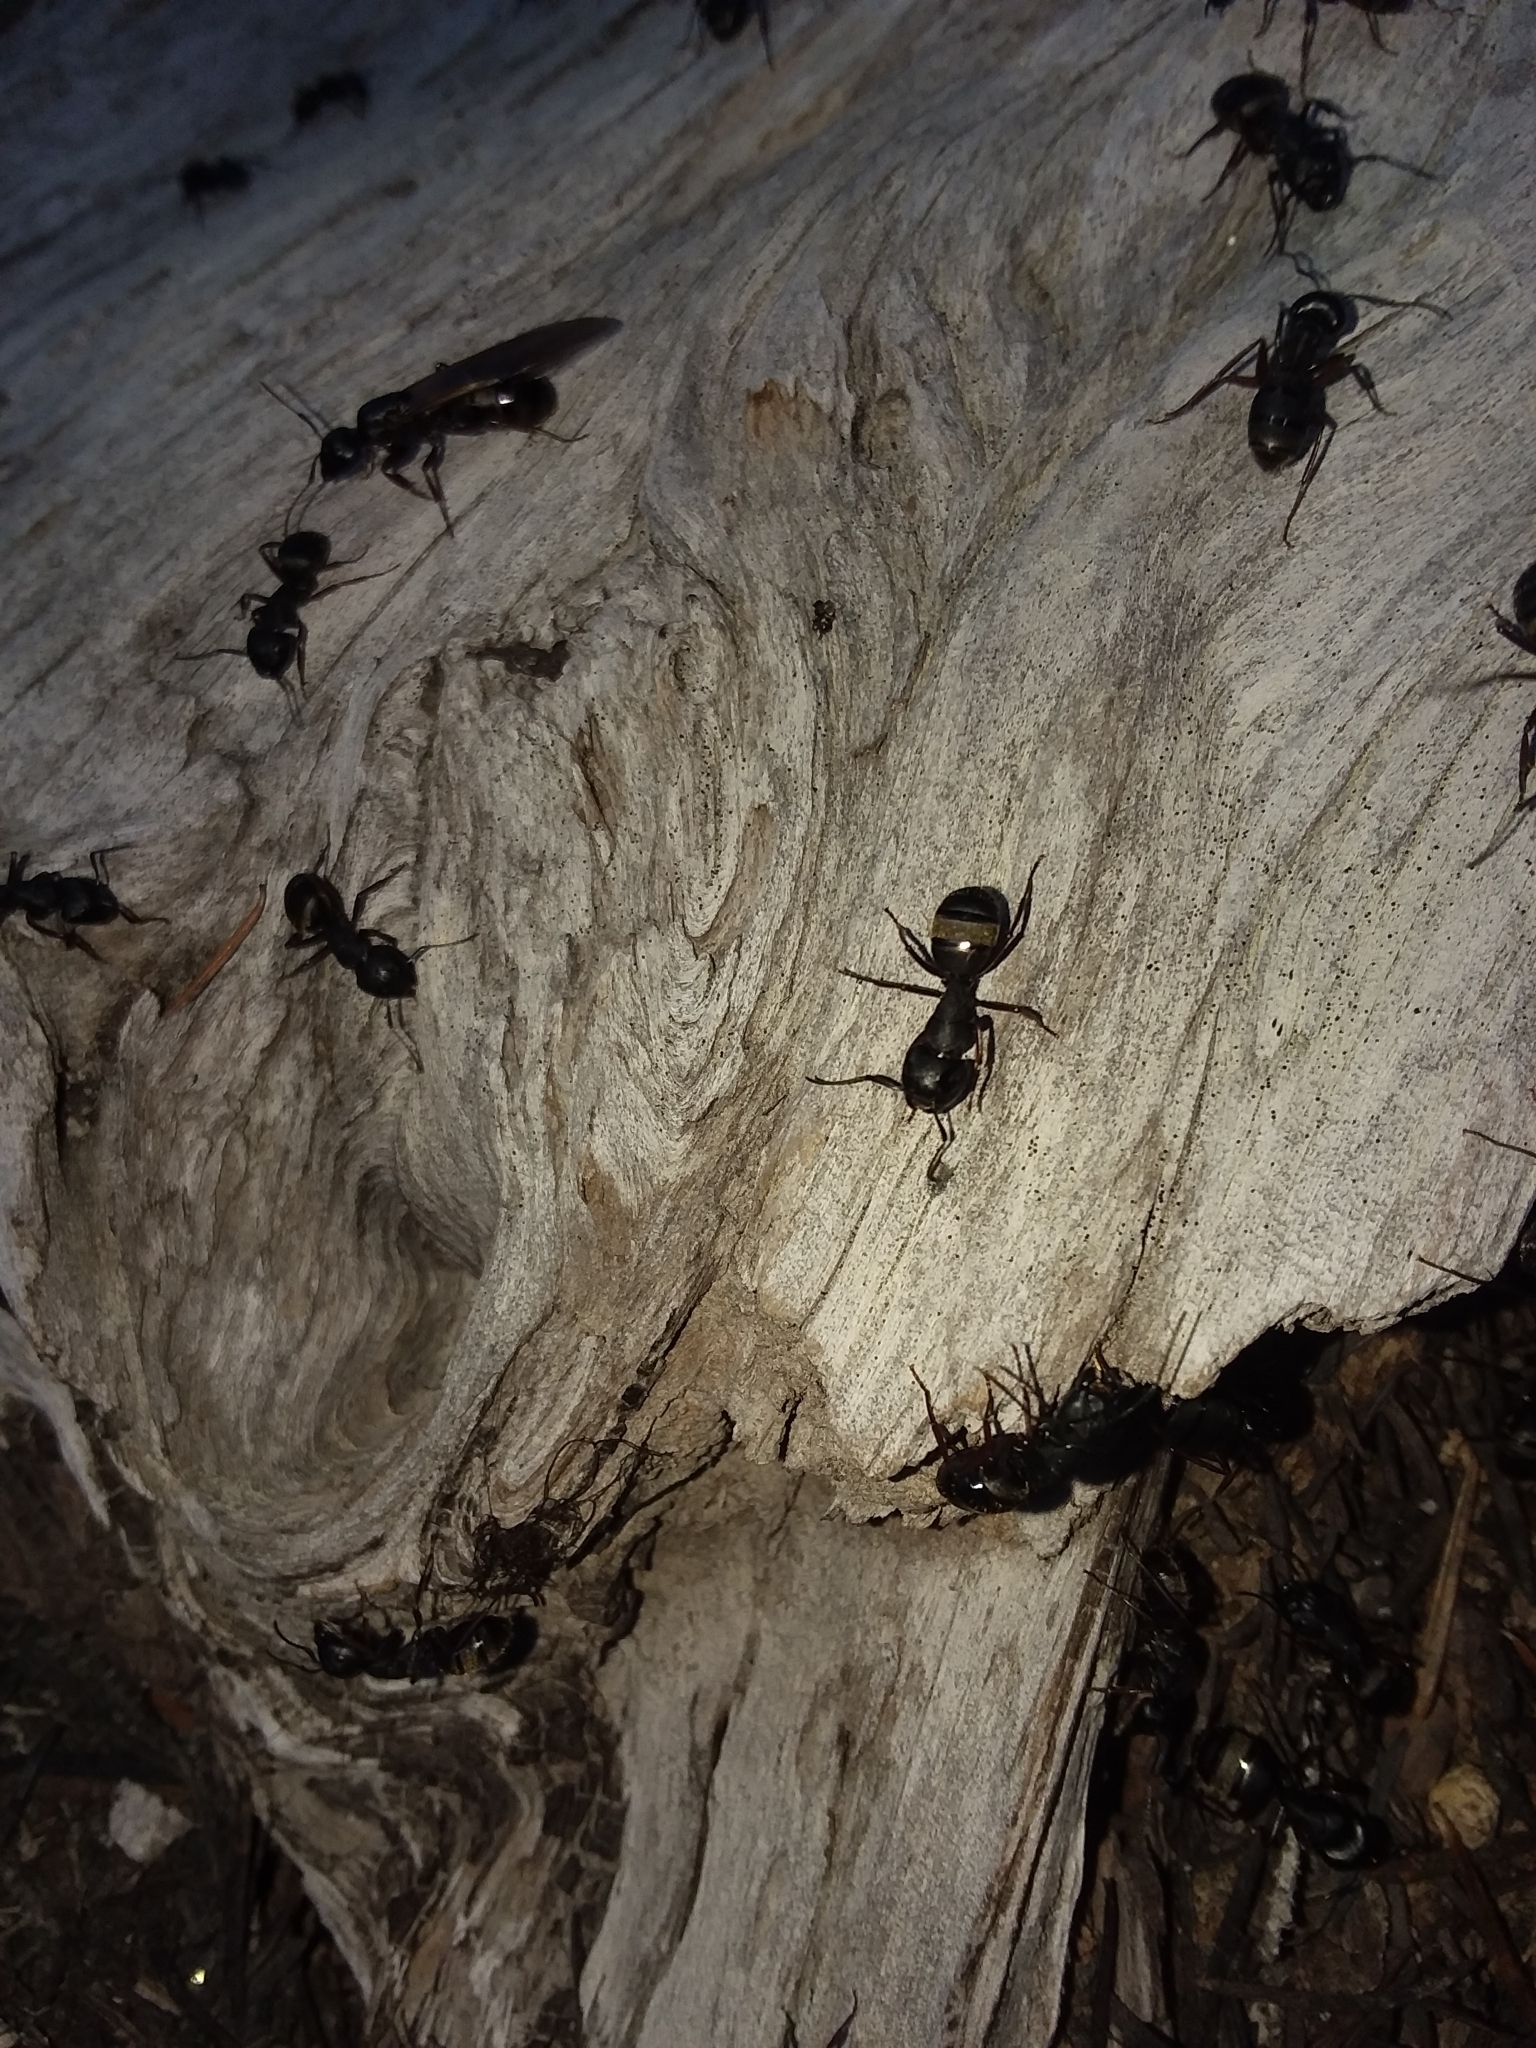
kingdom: Animalia
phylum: Arthropoda
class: Insecta
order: Hymenoptera
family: Formicidae
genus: Camponotus
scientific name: Camponotus modoc
